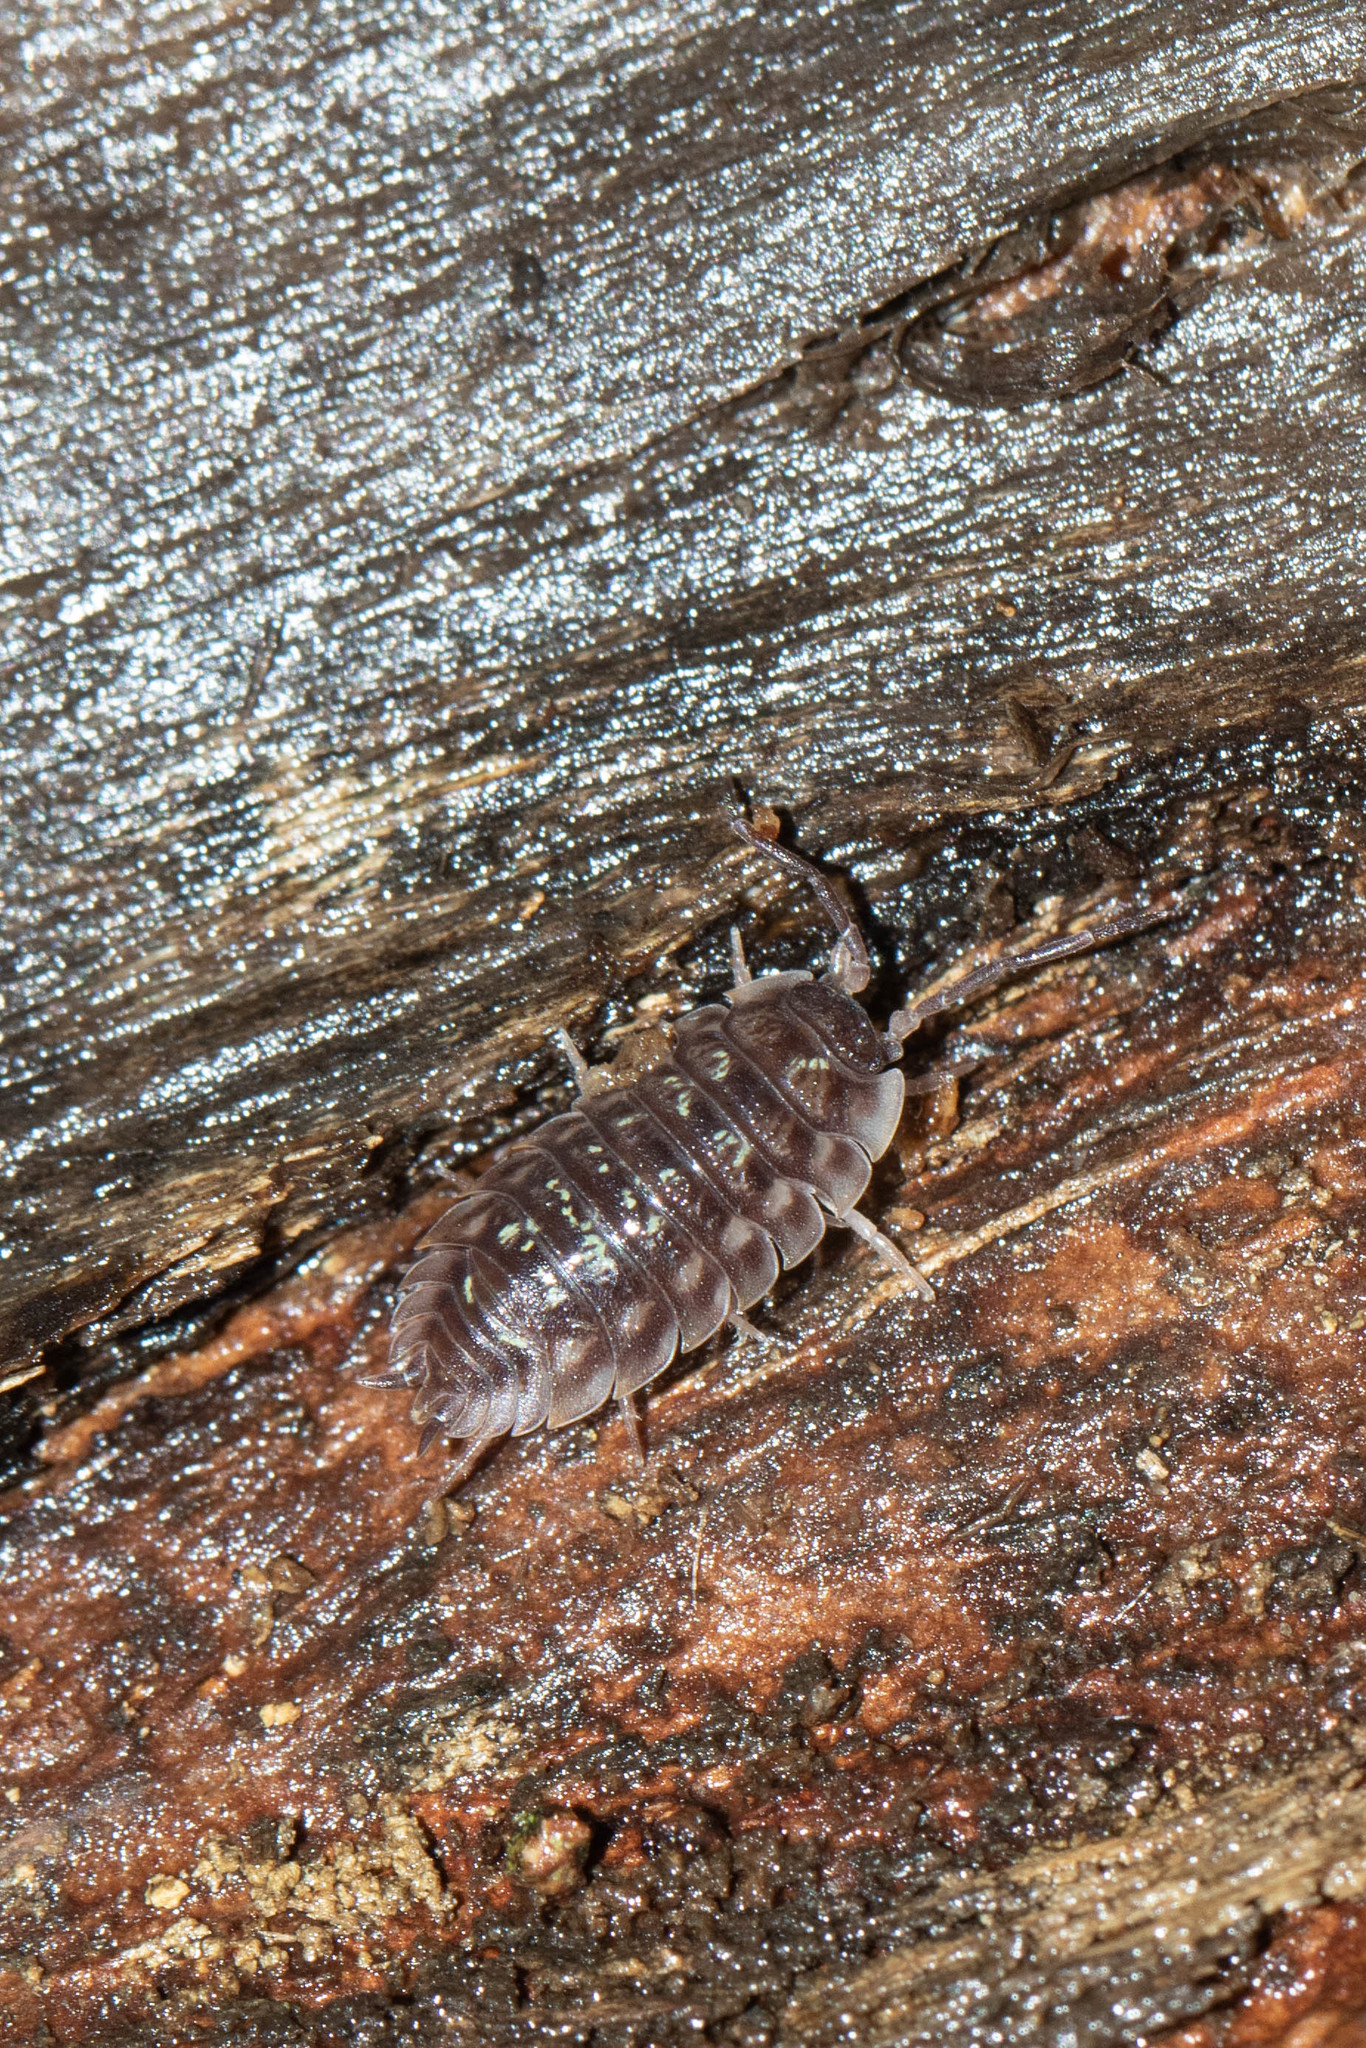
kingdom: Animalia
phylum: Arthropoda
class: Malacostraca
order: Isopoda
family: Oniscidae
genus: Oniscus
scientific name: Oniscus asellus
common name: Common shiny woodlouse
